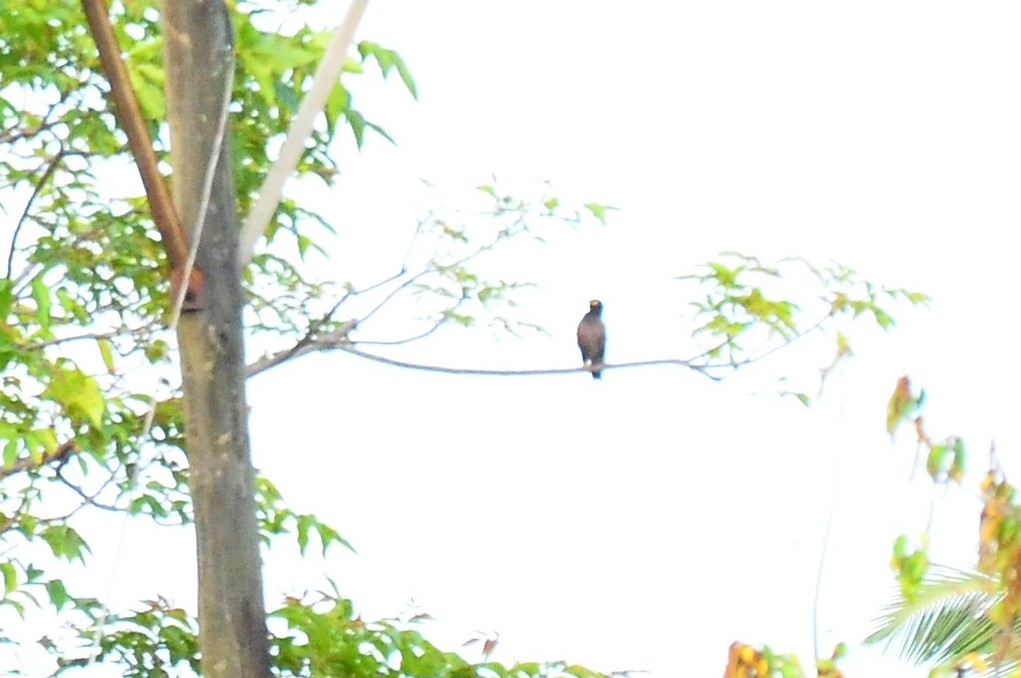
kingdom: Animalia
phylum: Chordata
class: Aves
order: Passeriformes
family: Sturnidae
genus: Acridotheres
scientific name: Acridotheres tristis
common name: Common myna
